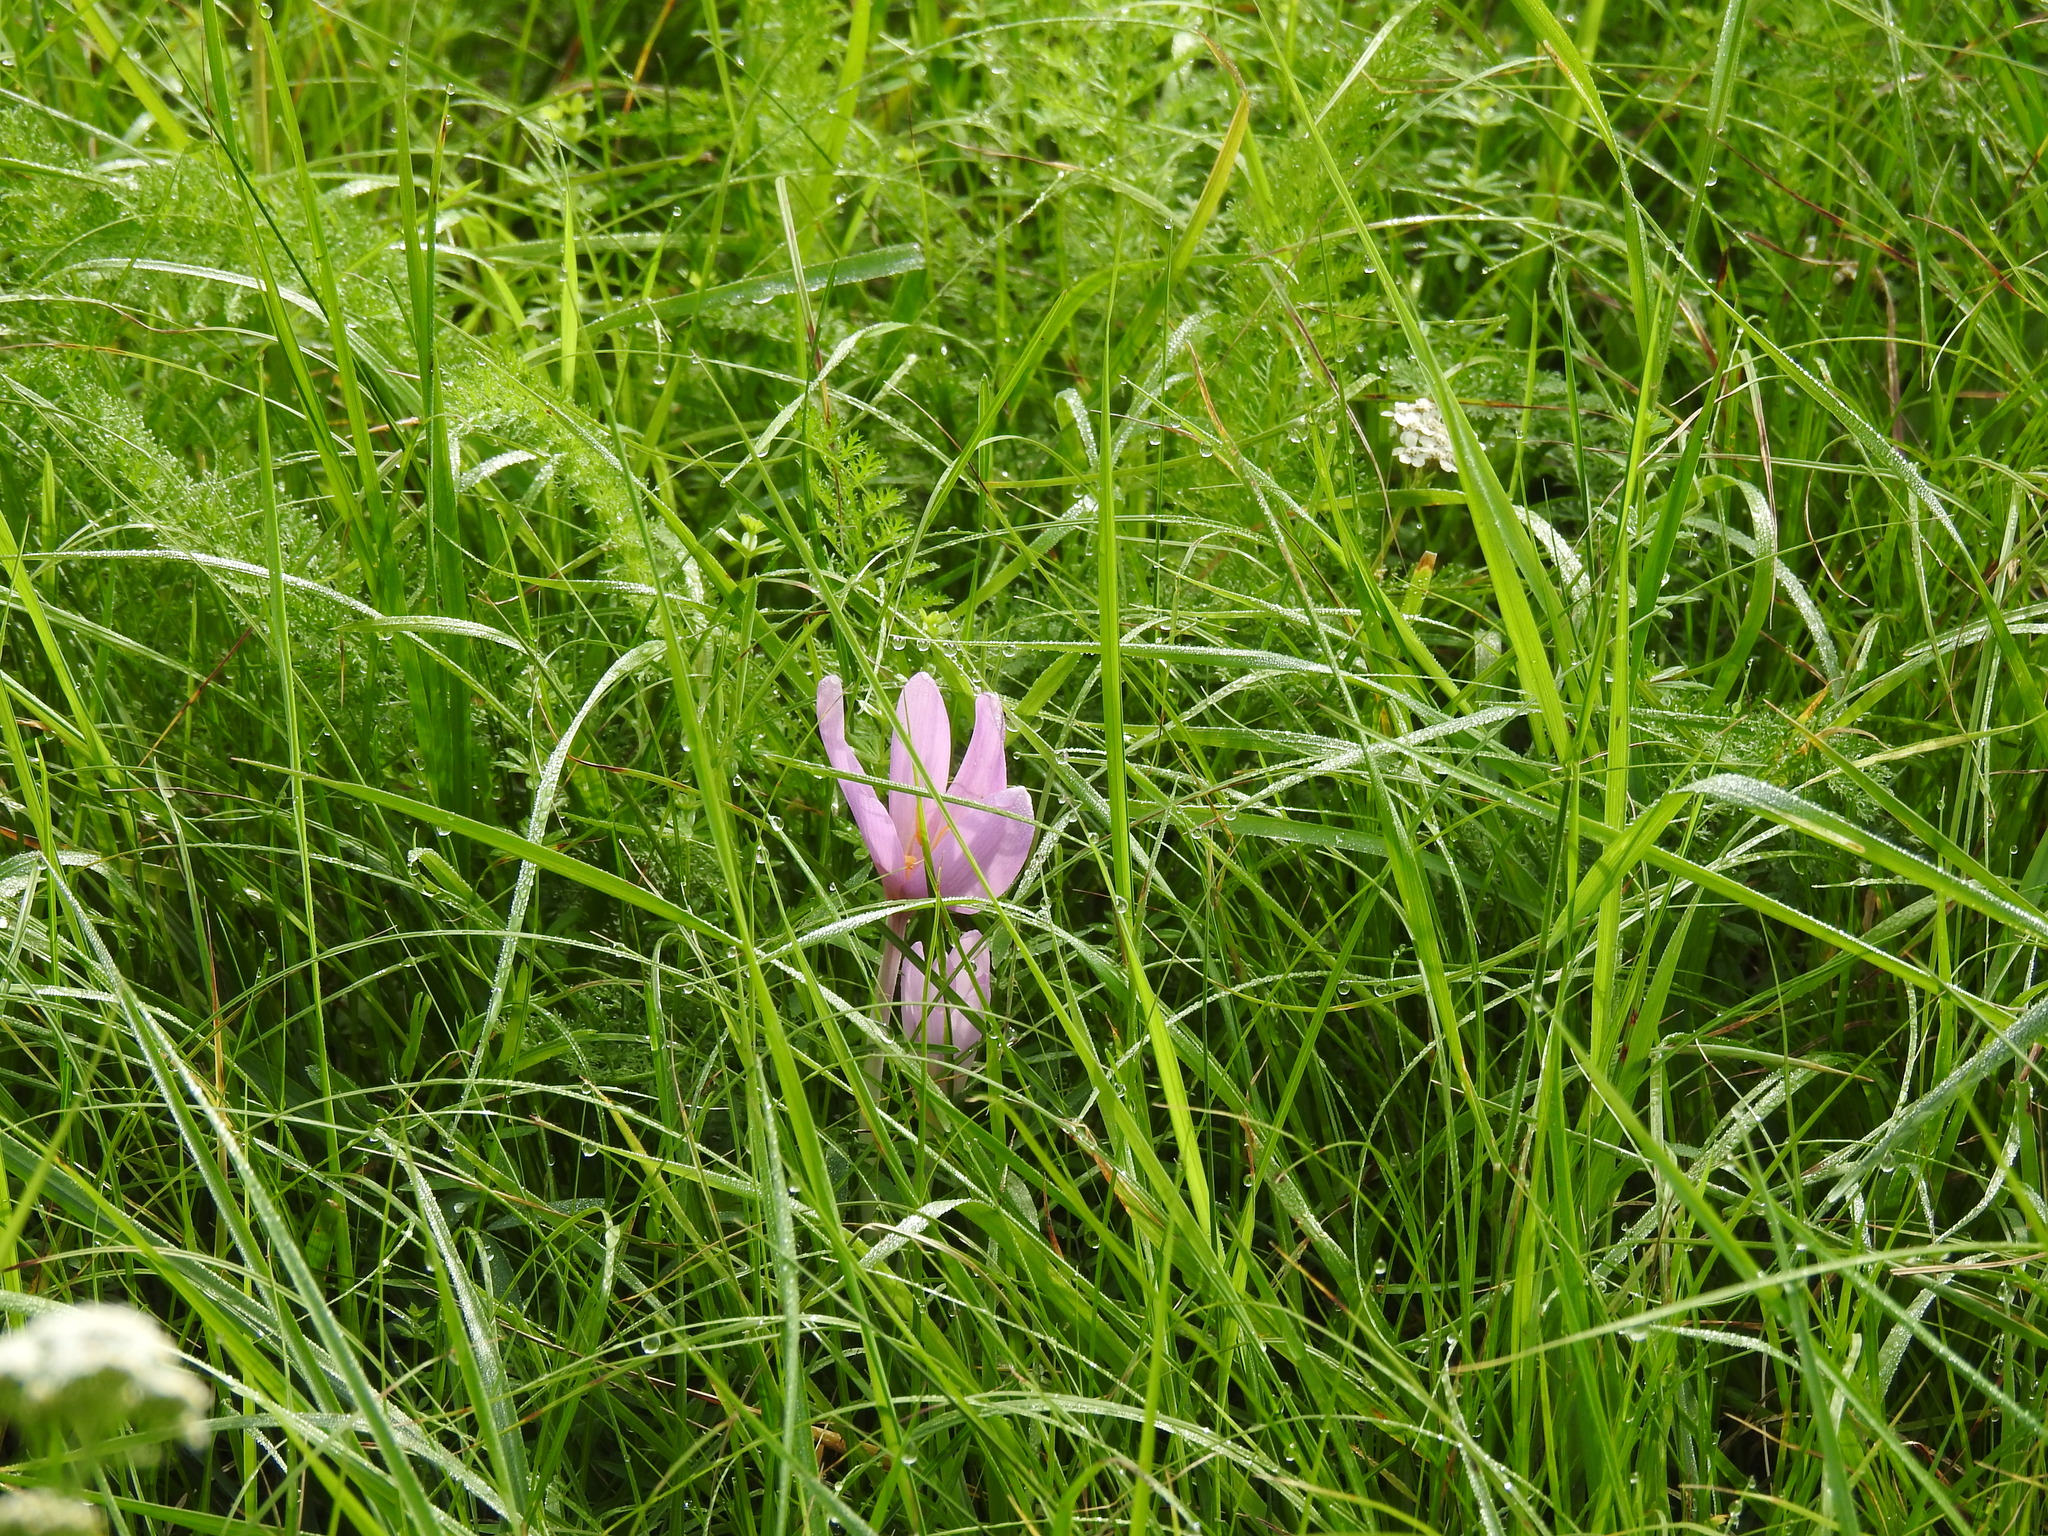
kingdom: Plantae
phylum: Tracheophyta
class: Liliopsida
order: Liliales
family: Colchicaceae
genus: Colchicum
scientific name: Colchicum autumnale
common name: Autumn crocus
